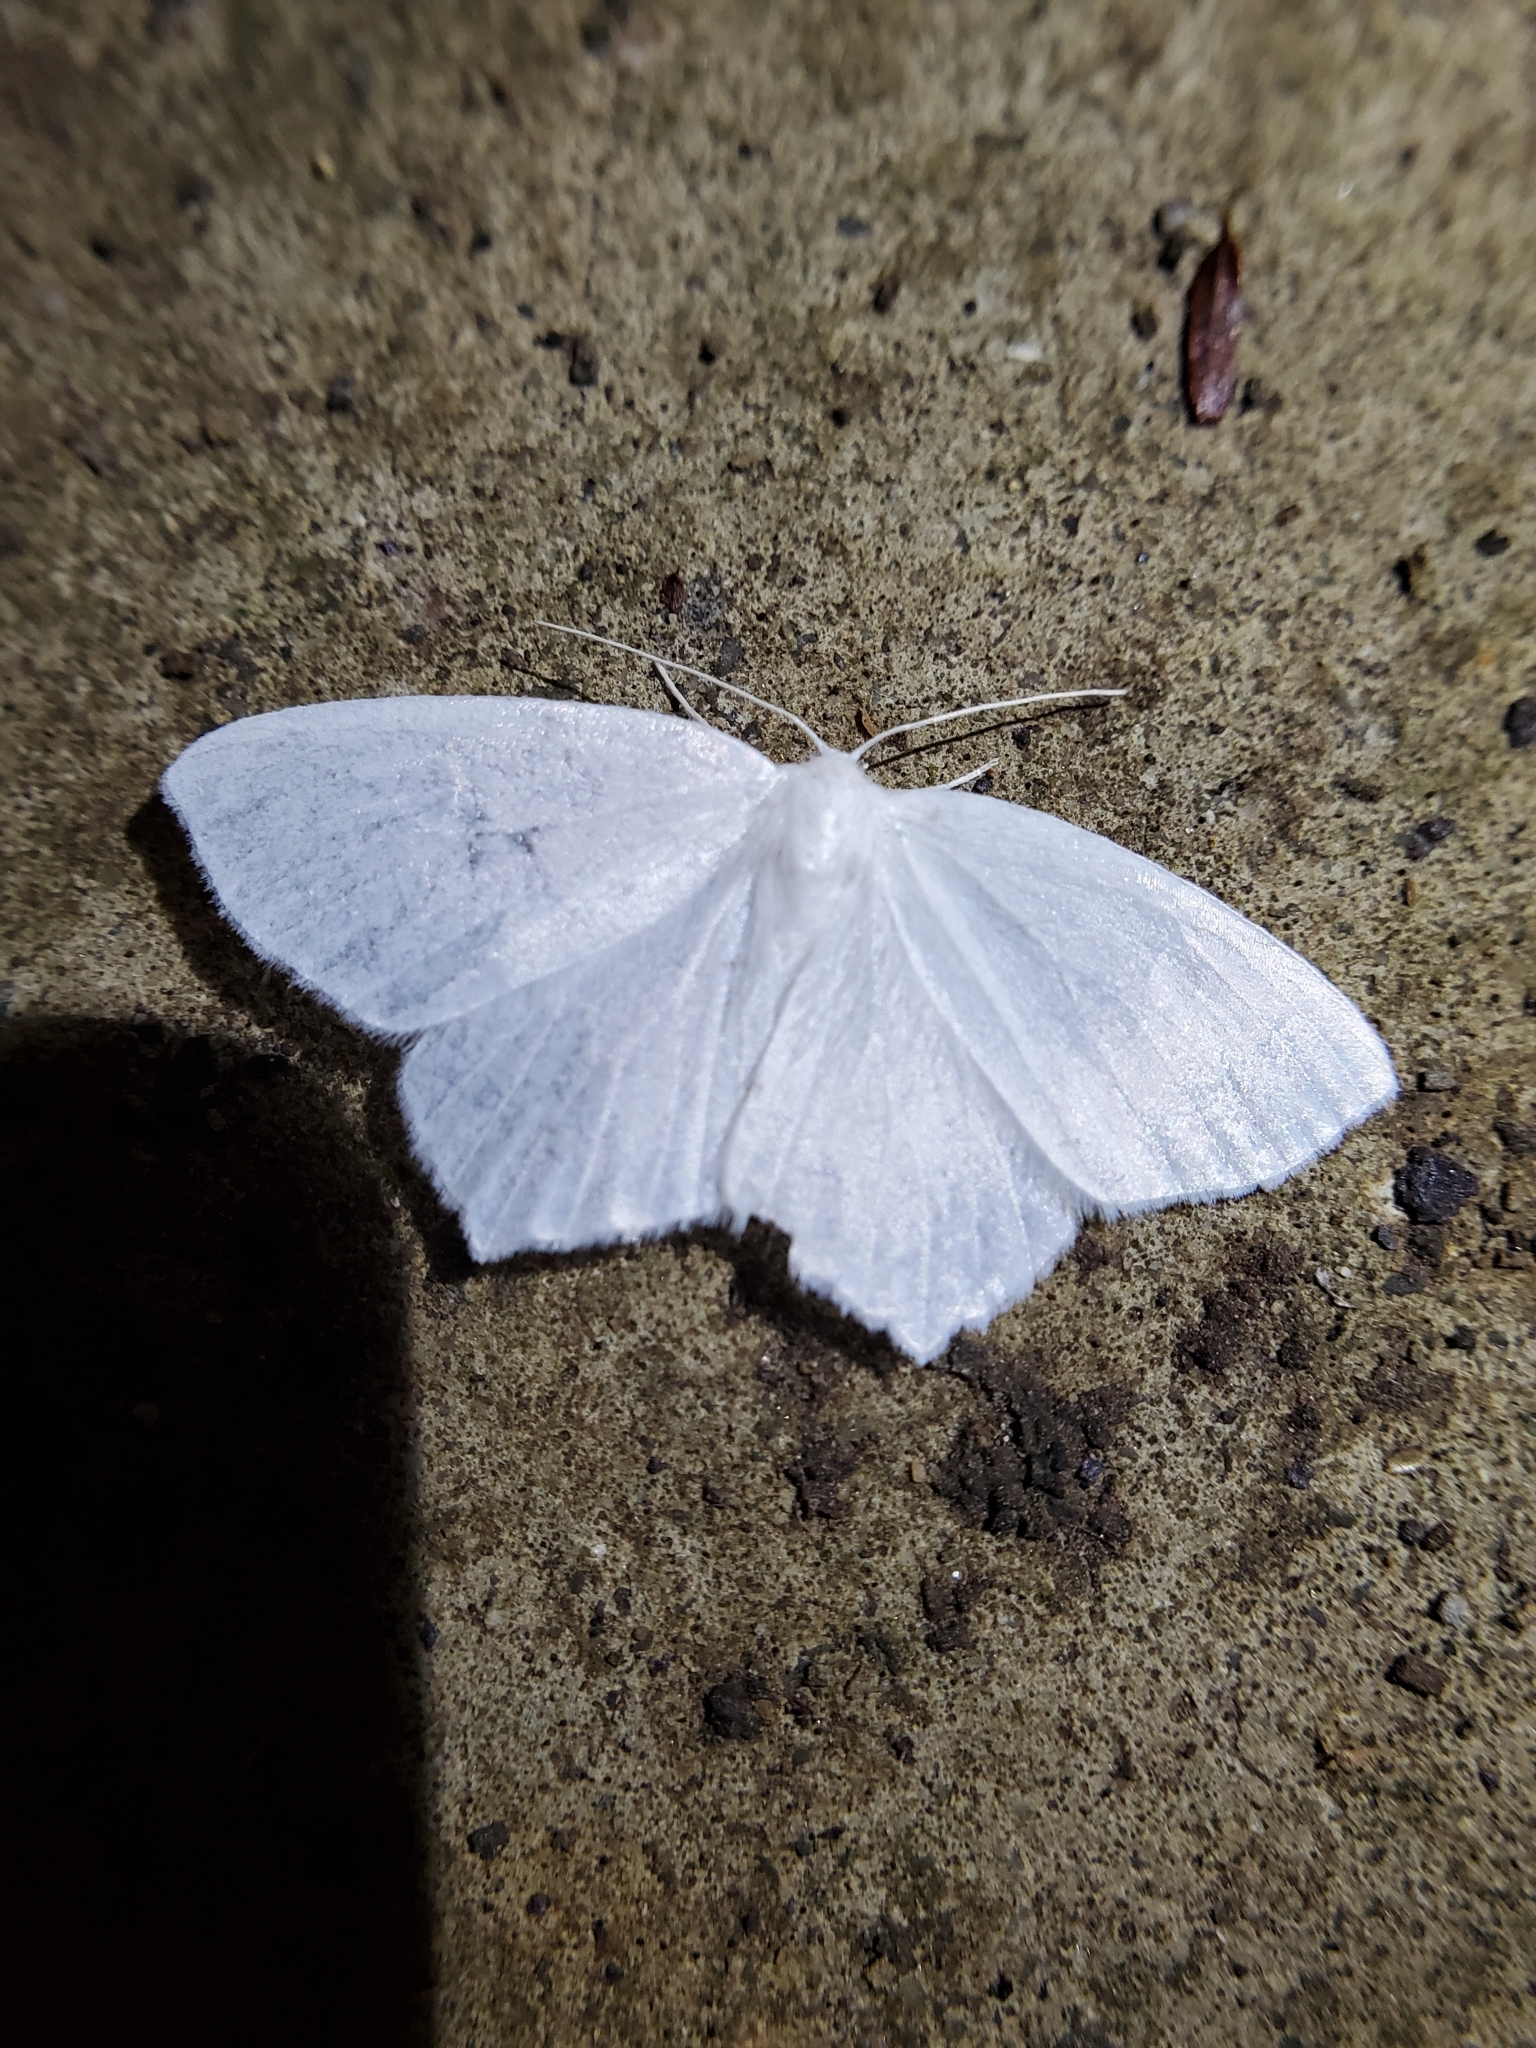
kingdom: Animalia
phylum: Arthropoda
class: Insecta
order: Lepidoptera
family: Geometridae
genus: Eugonobapta
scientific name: Eugonobapta nivosaria
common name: Snowy geometer
